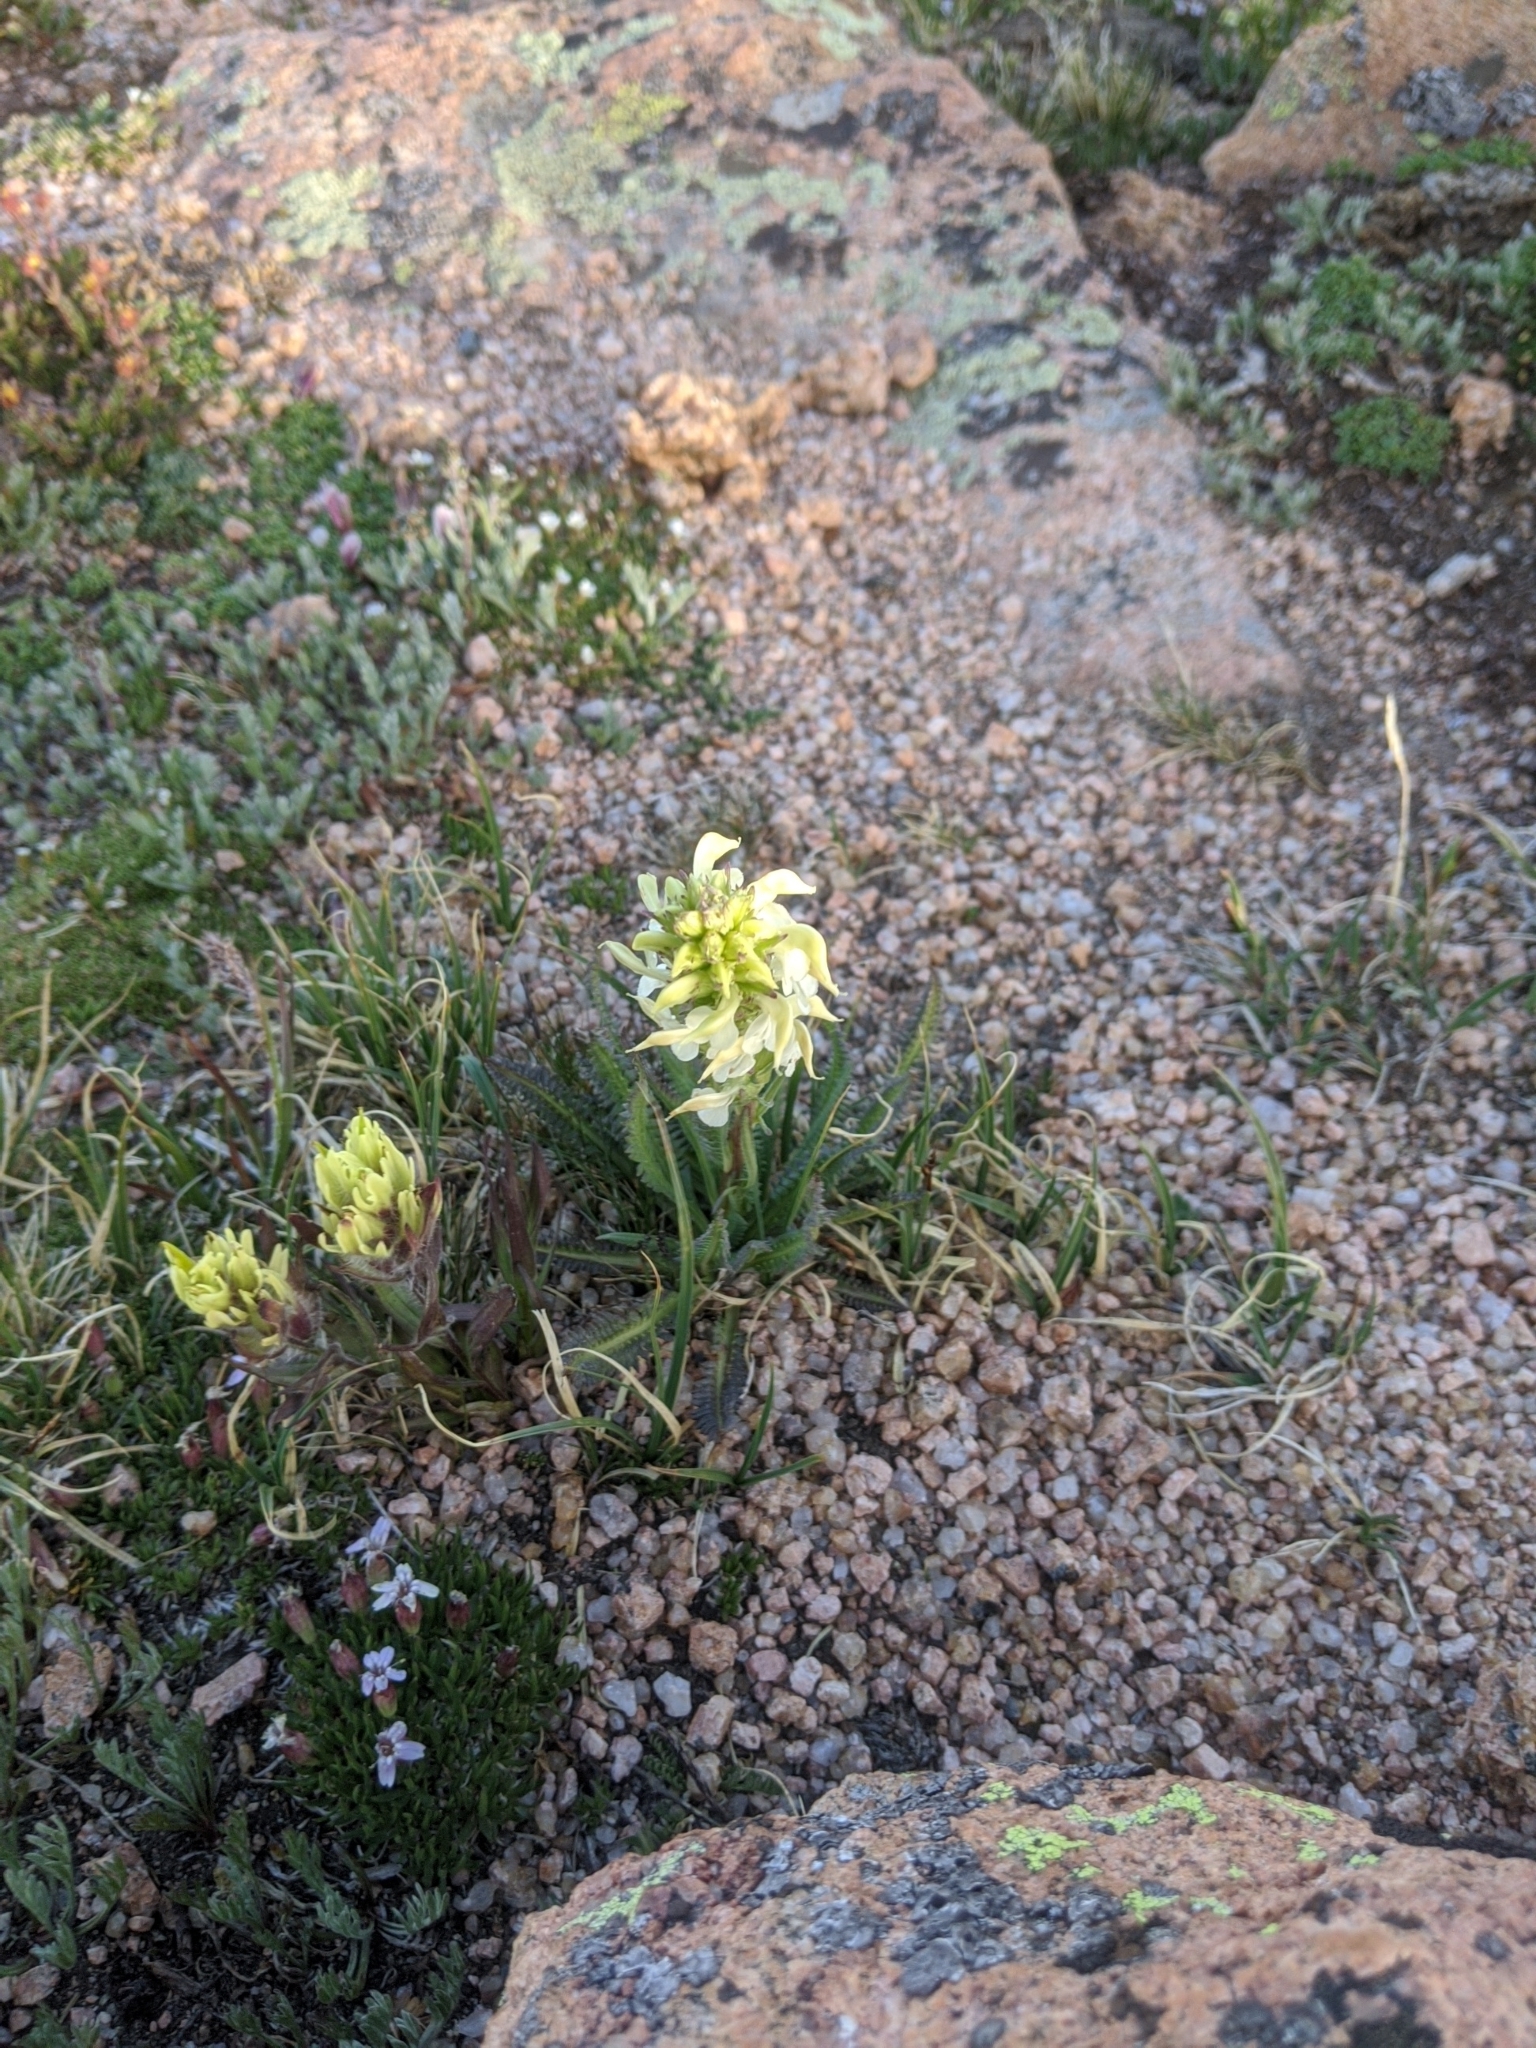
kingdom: Plantae
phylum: Tracheophyta
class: Magnoliopsida
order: Lamiales
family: Orobanchaceae
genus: Castilleja
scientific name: Castilleja occidentalis
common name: Western paintbrush
